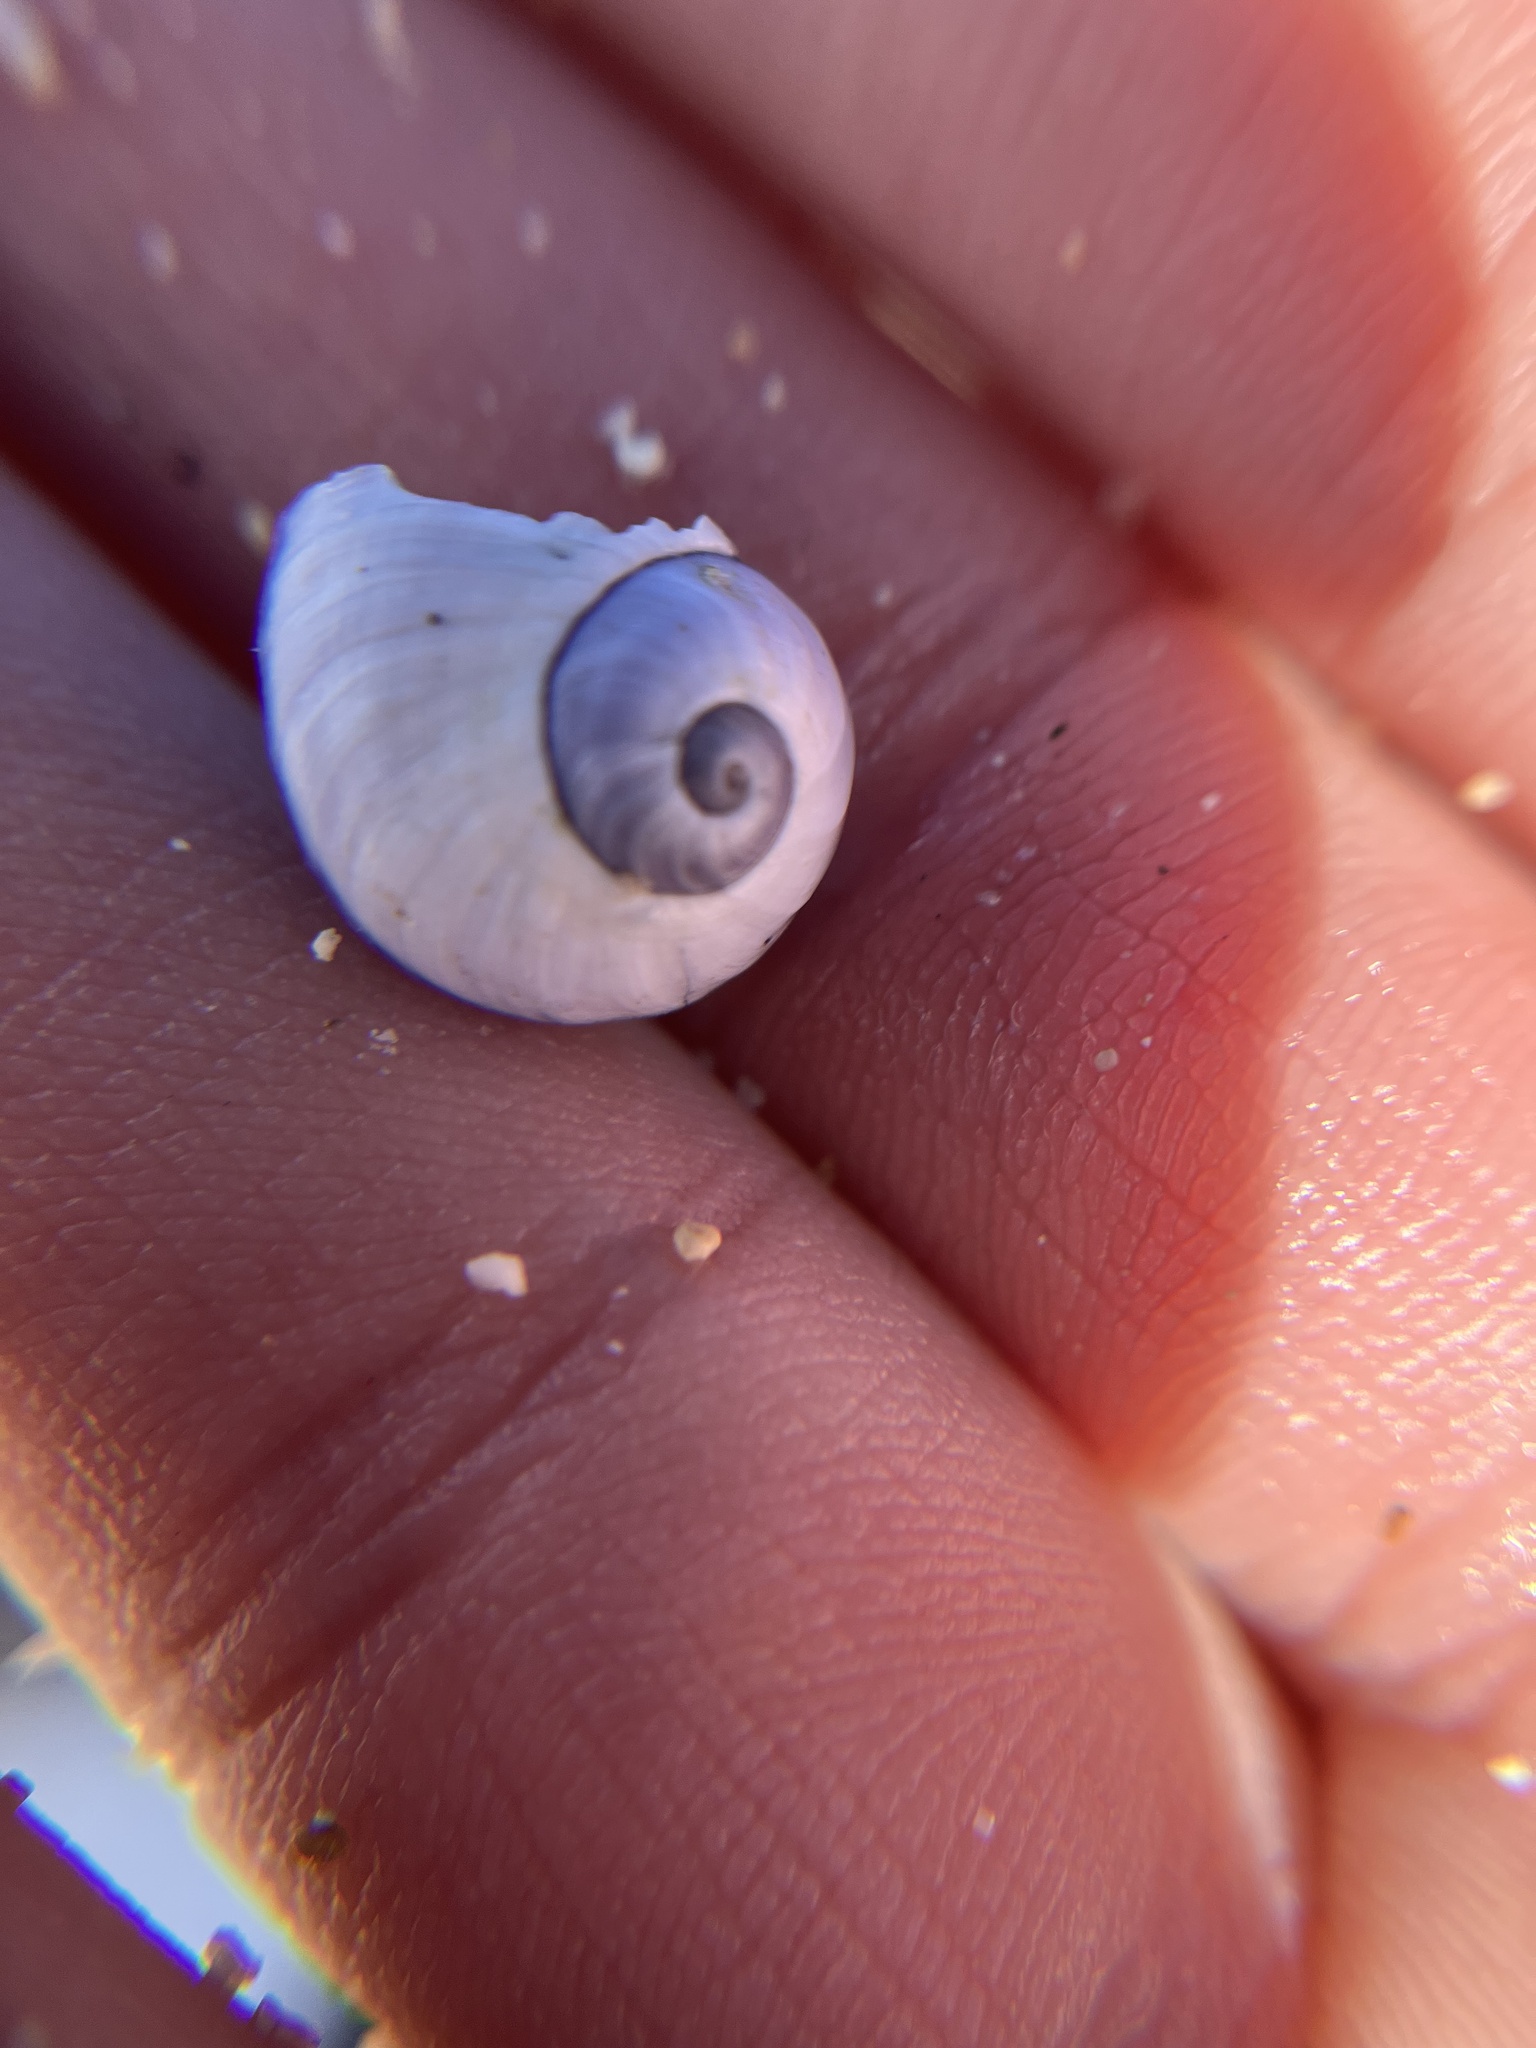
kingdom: Animalia
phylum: Mollusca
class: Gastropoda
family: Epitoniidae
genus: Janthina
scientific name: Janthina janthina
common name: Common janthina
